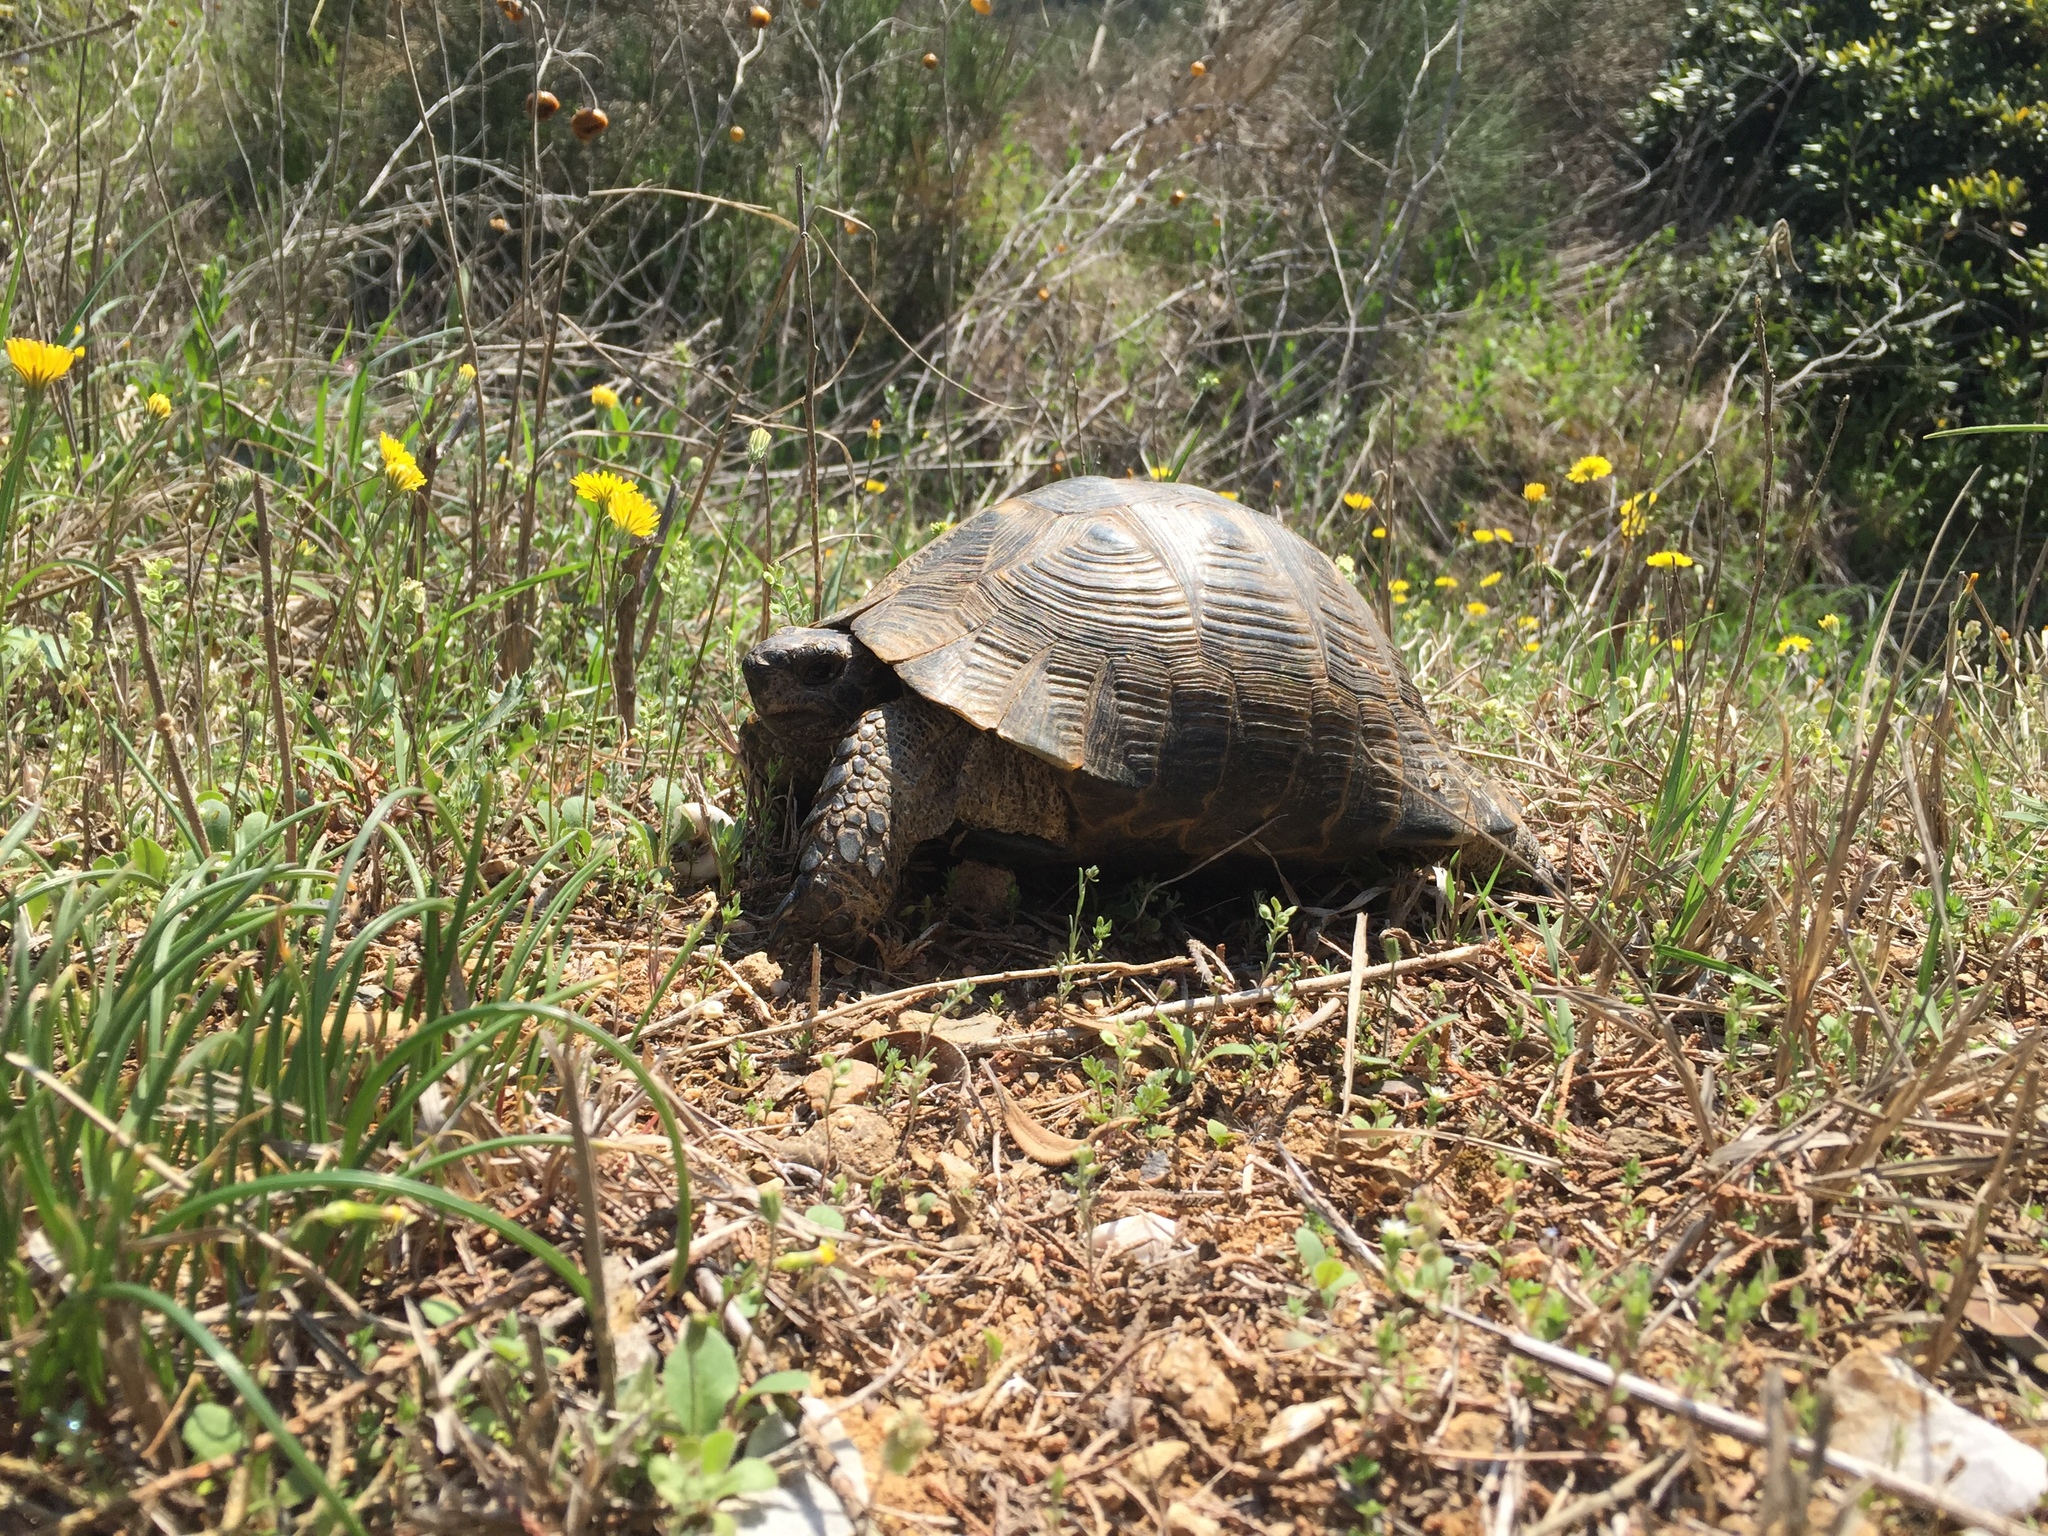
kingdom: Animalia
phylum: Chordata
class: Testudines
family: Testudinidae
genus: Testudo
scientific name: Testudo graeca
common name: Common tortoise
